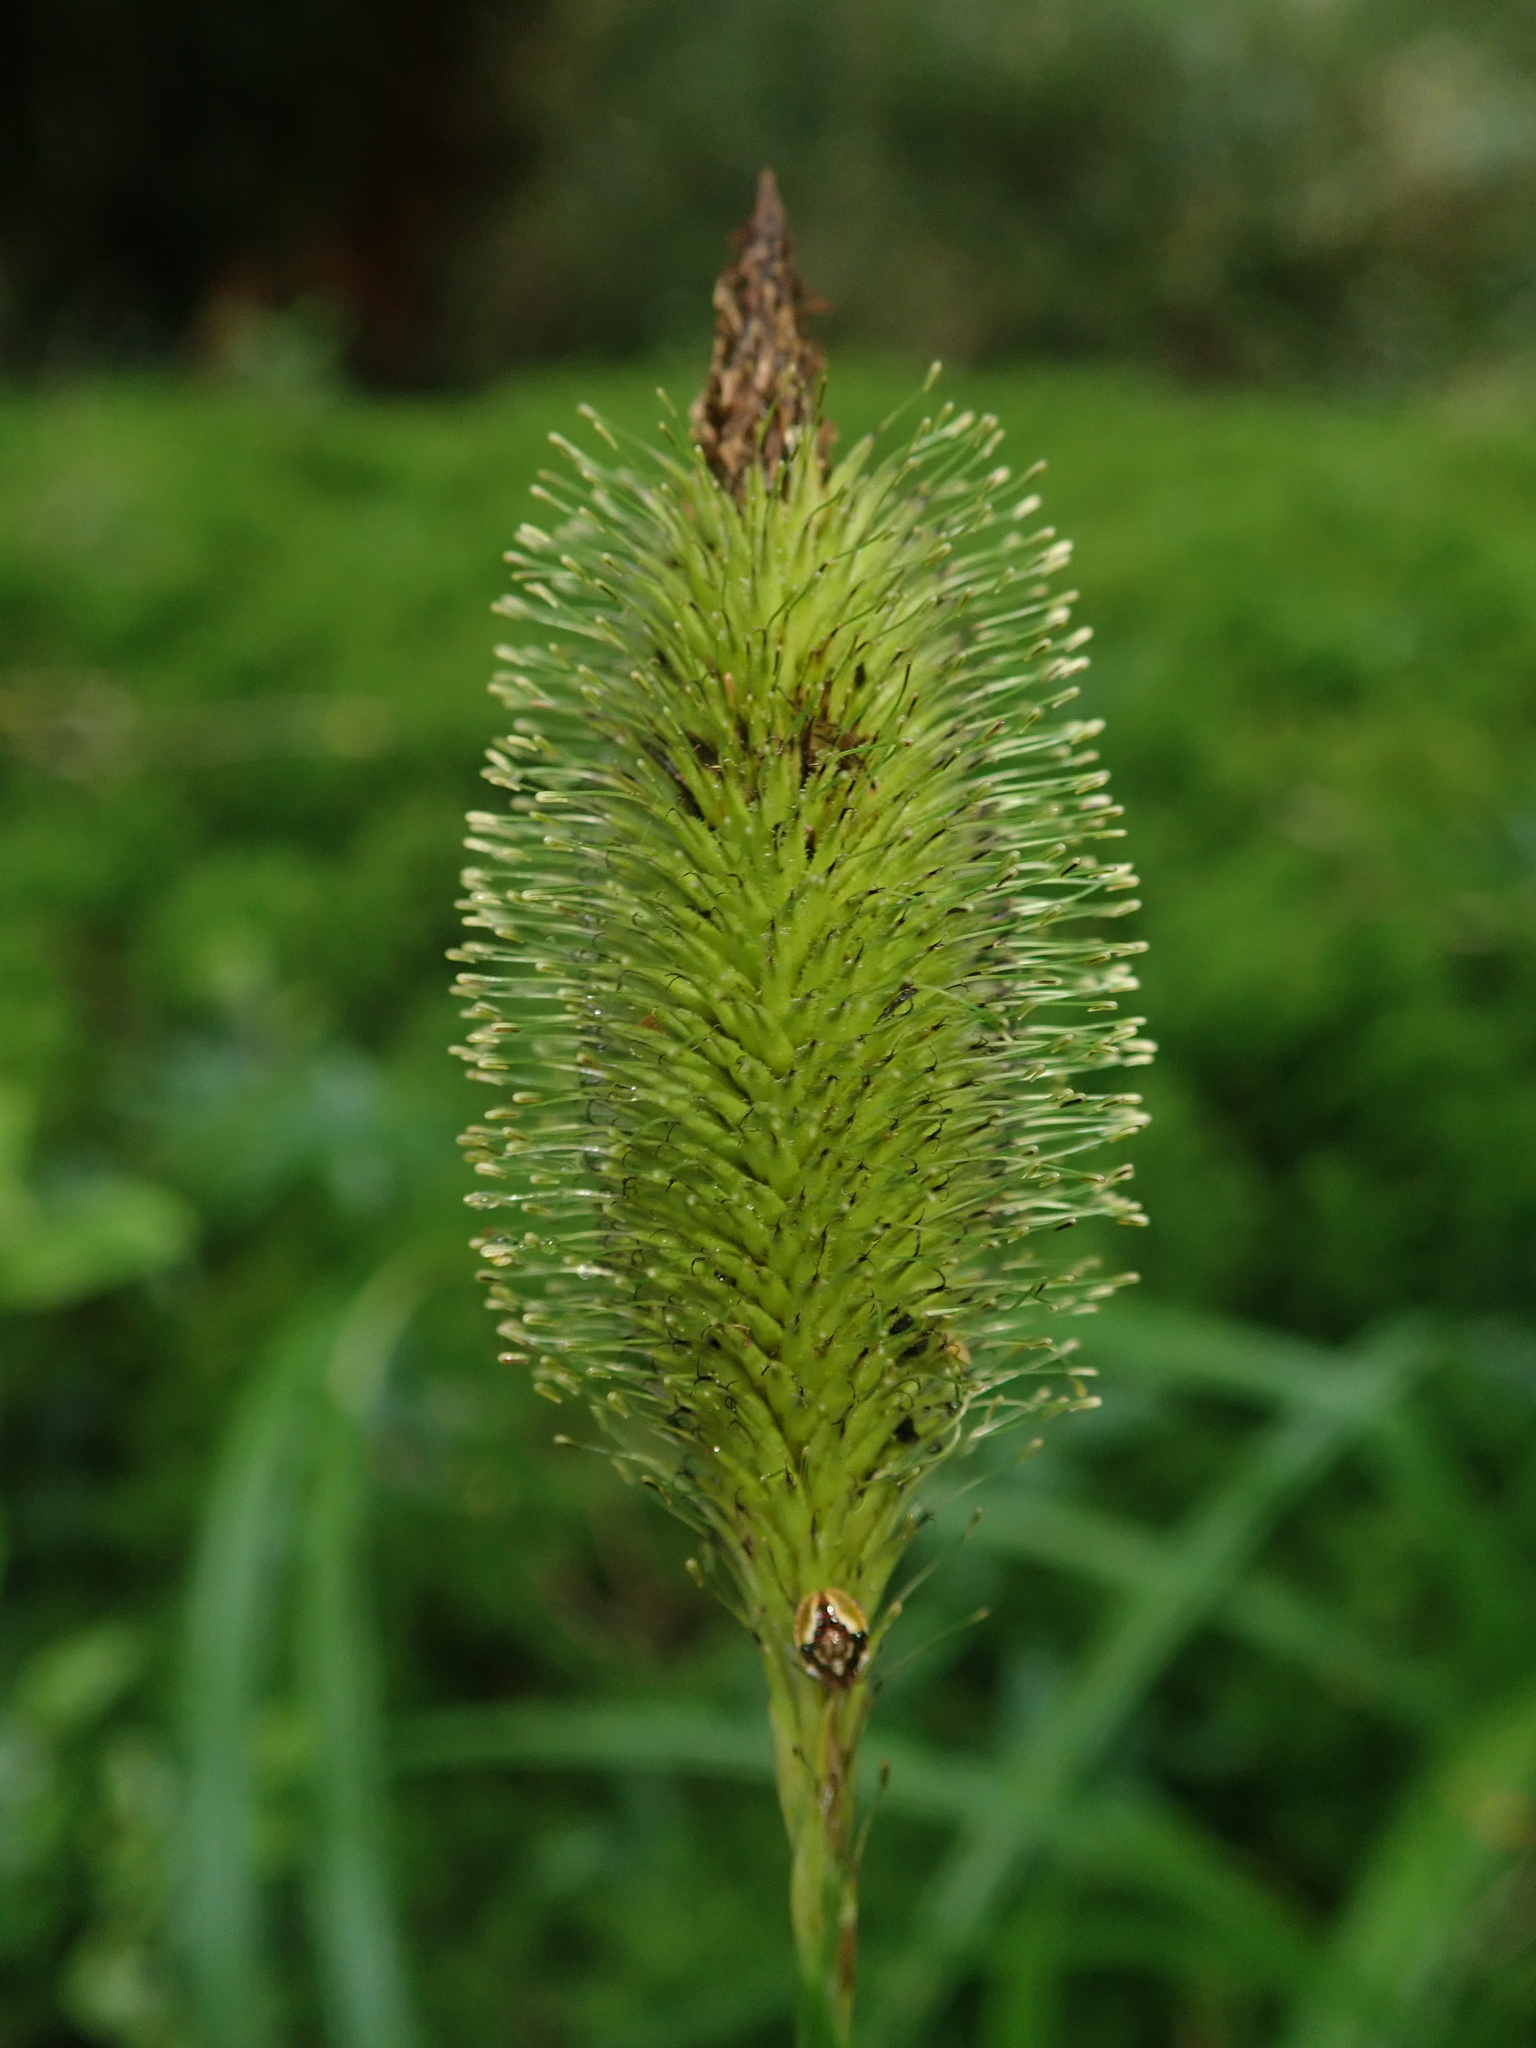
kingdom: Plantae
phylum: Tracheophyta
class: Liliopsida
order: Poales
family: Cyperaceae
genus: Carex
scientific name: Carex multifaria
